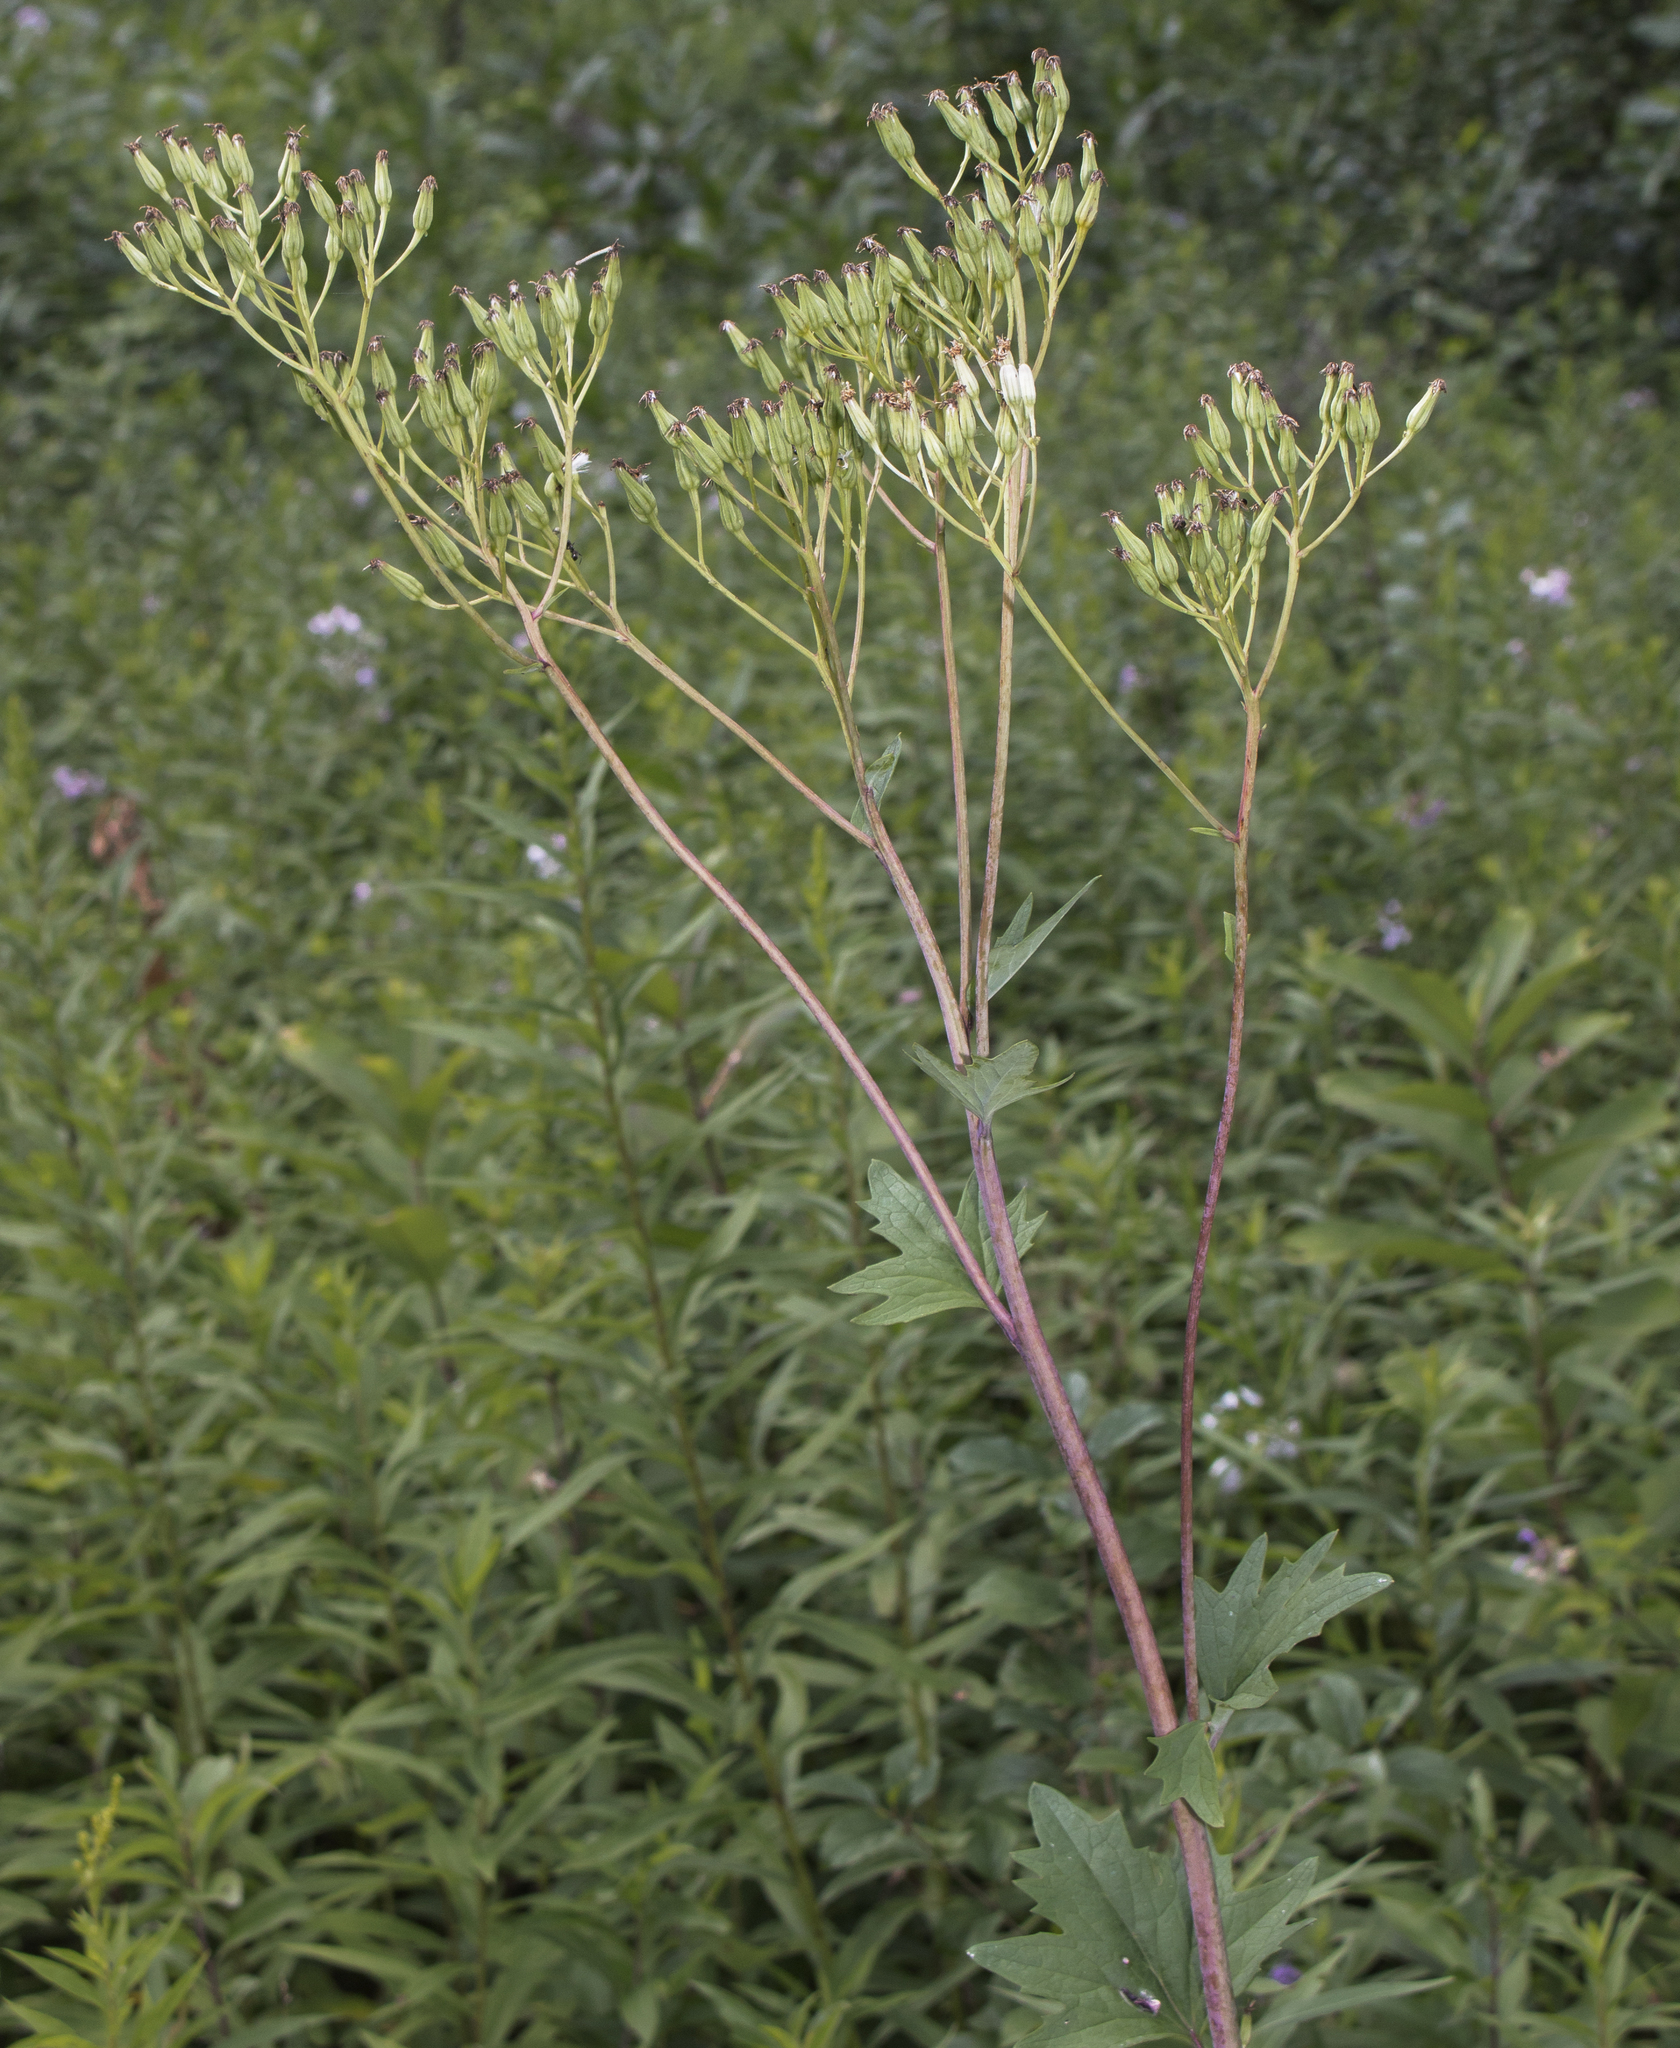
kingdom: Plantae
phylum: Tracheophyta
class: Magnoliopsida
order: Asterales
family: Asteraceae
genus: Arnoglossum
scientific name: Arnoglossum atriplicifolium
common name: Pale indian-plantain
